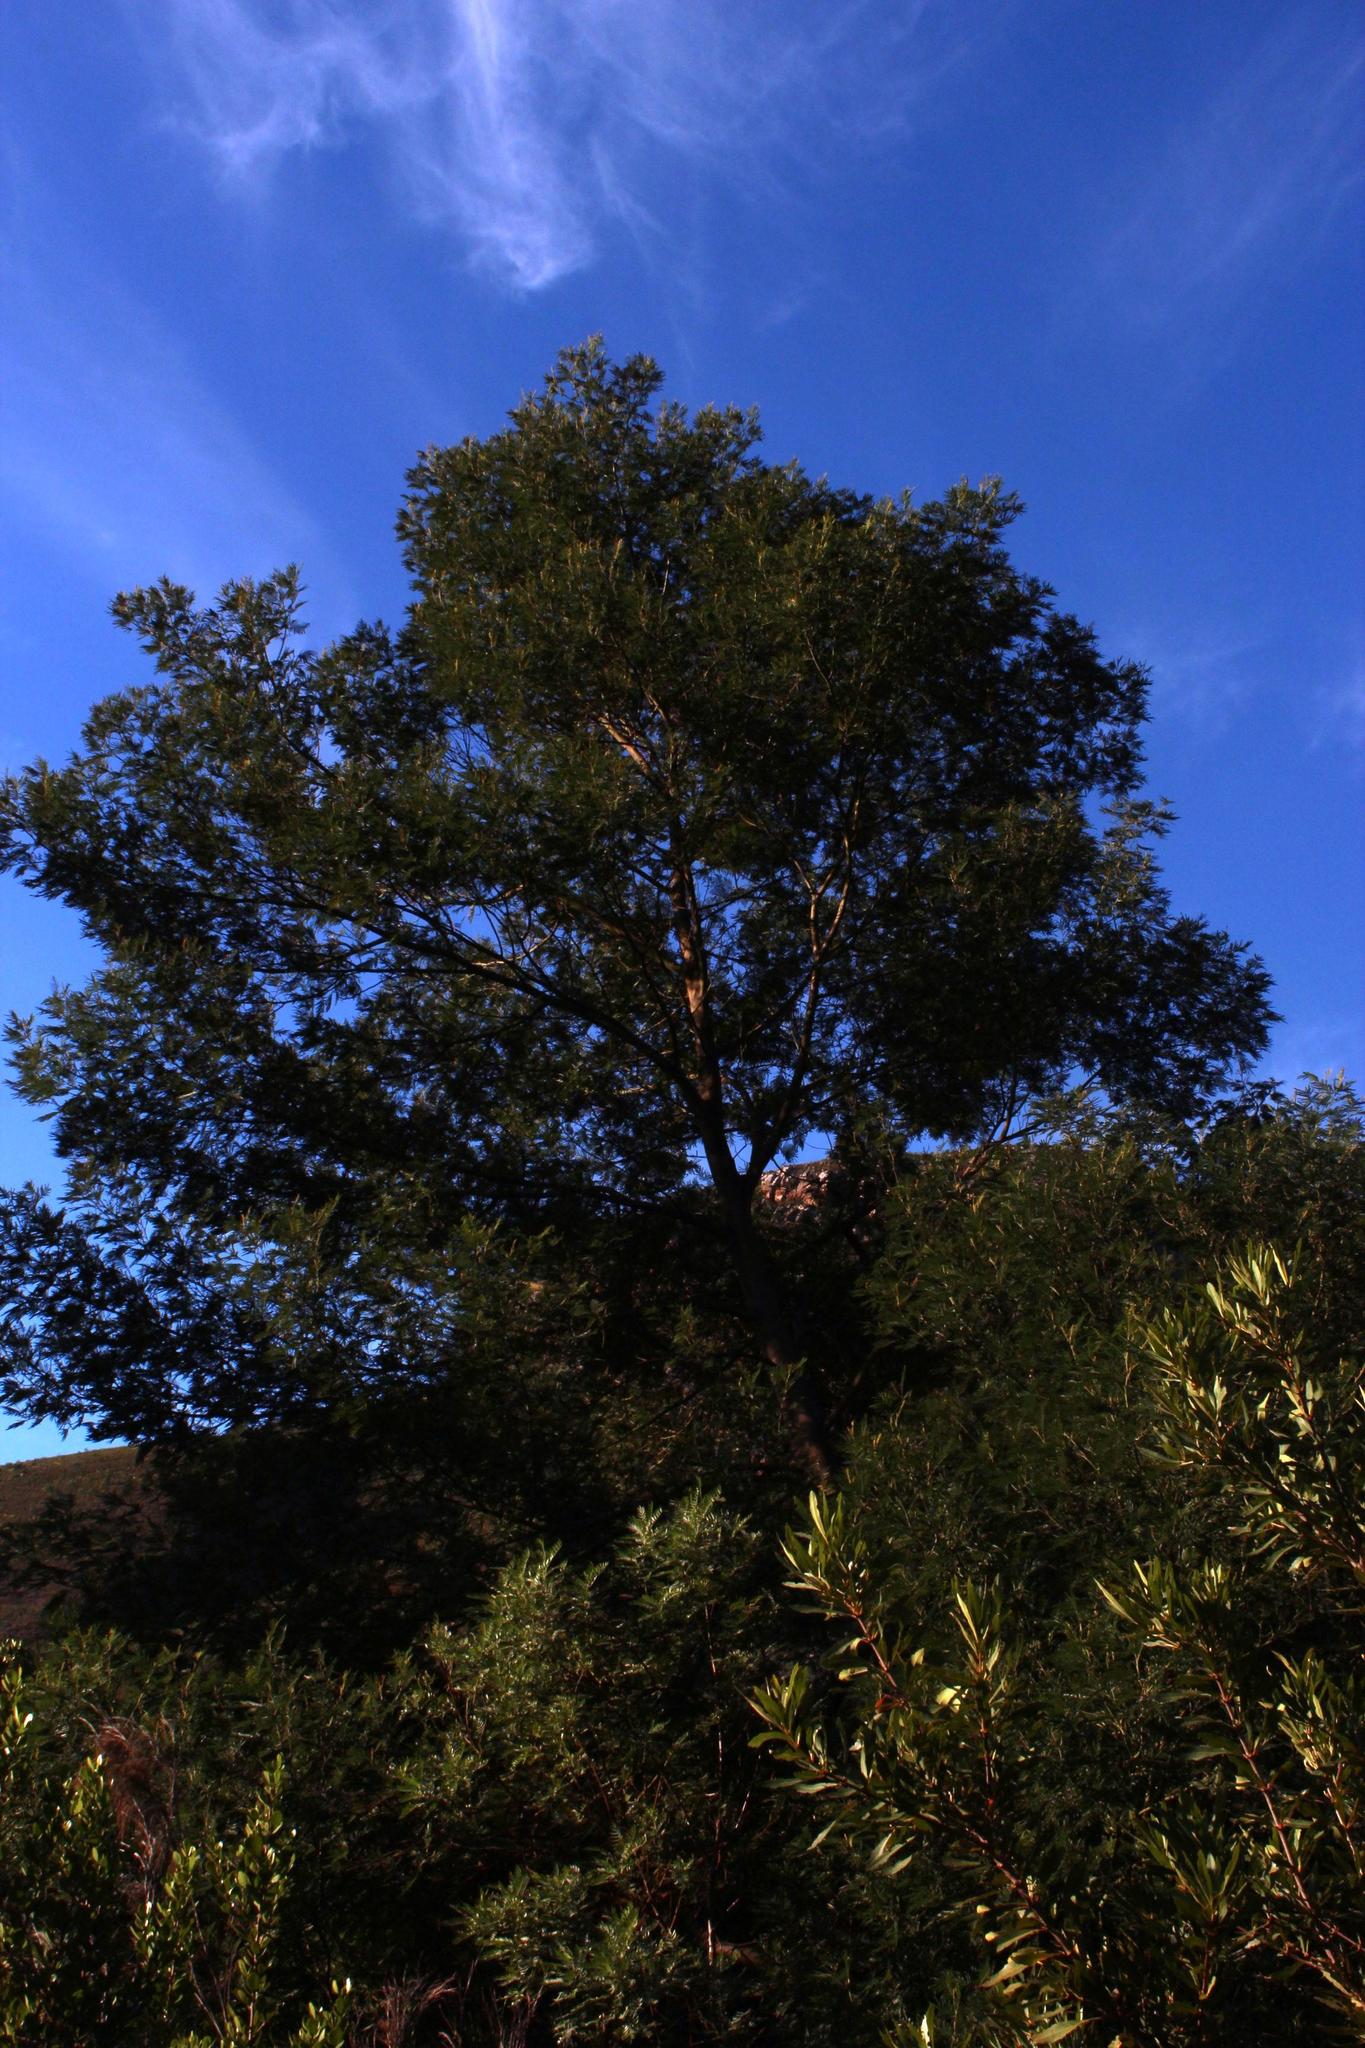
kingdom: Plantae
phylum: Tracheophyta
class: Magnoliopsida
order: Fabales
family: Fabaceae
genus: Acacia
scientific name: Acacia mearnsii
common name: Black wattle
